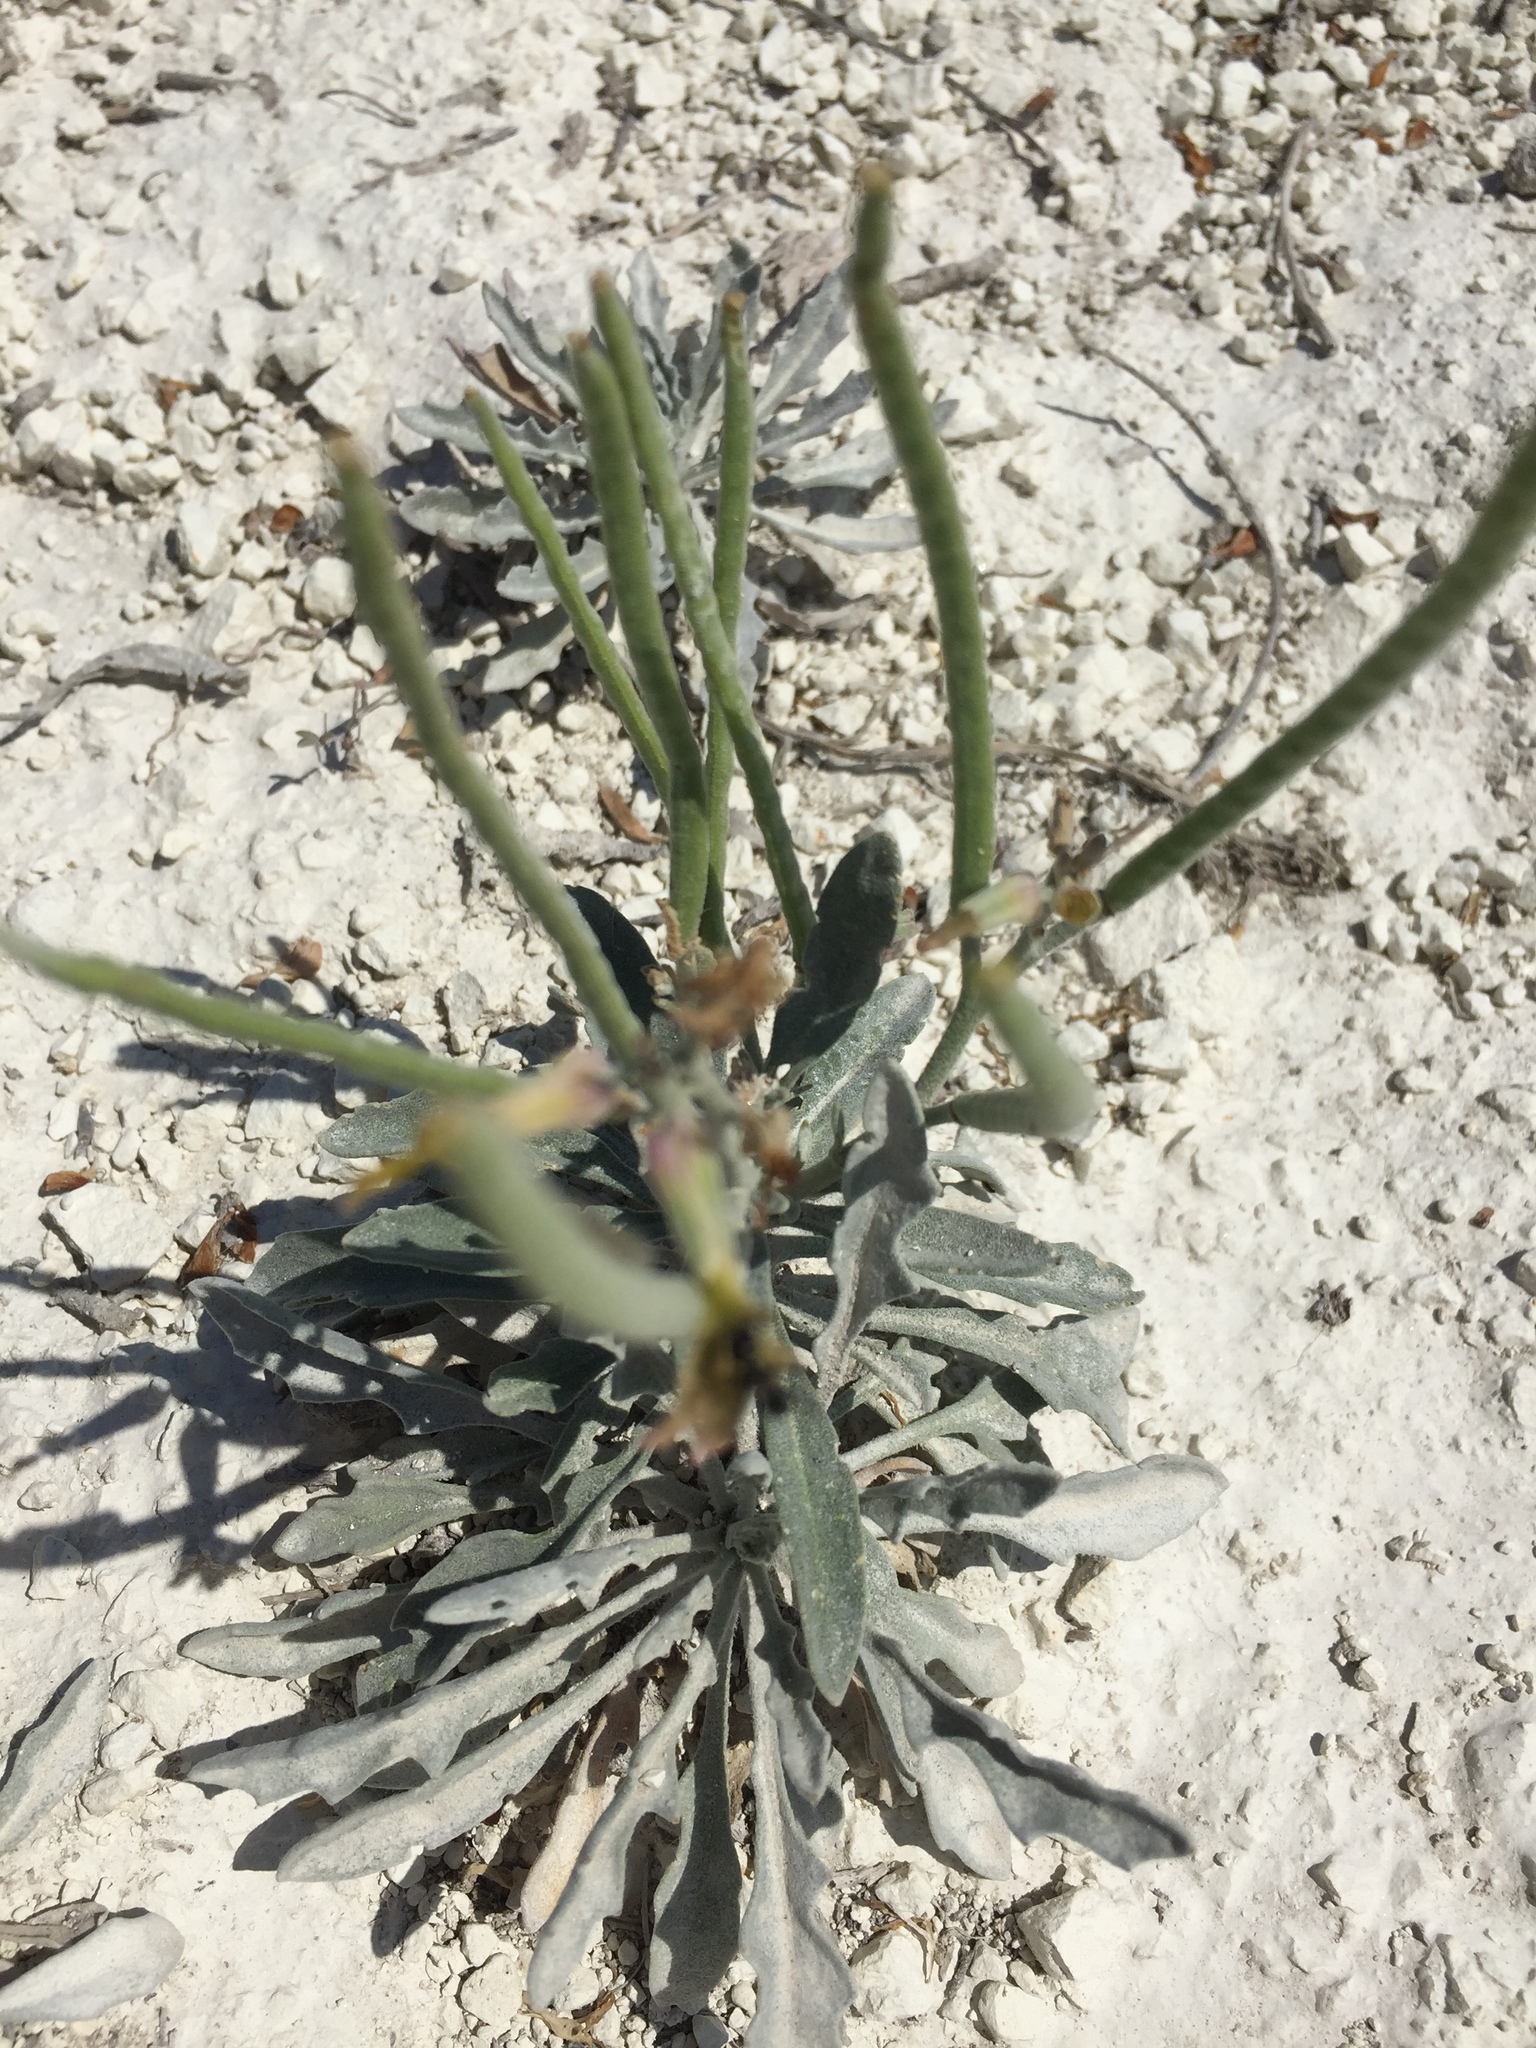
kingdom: Plantae
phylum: Tracheophyta
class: Magnoliopsida
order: Brassicales
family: Brassicaceae
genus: Matthiola
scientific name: Matthiola fragrans
